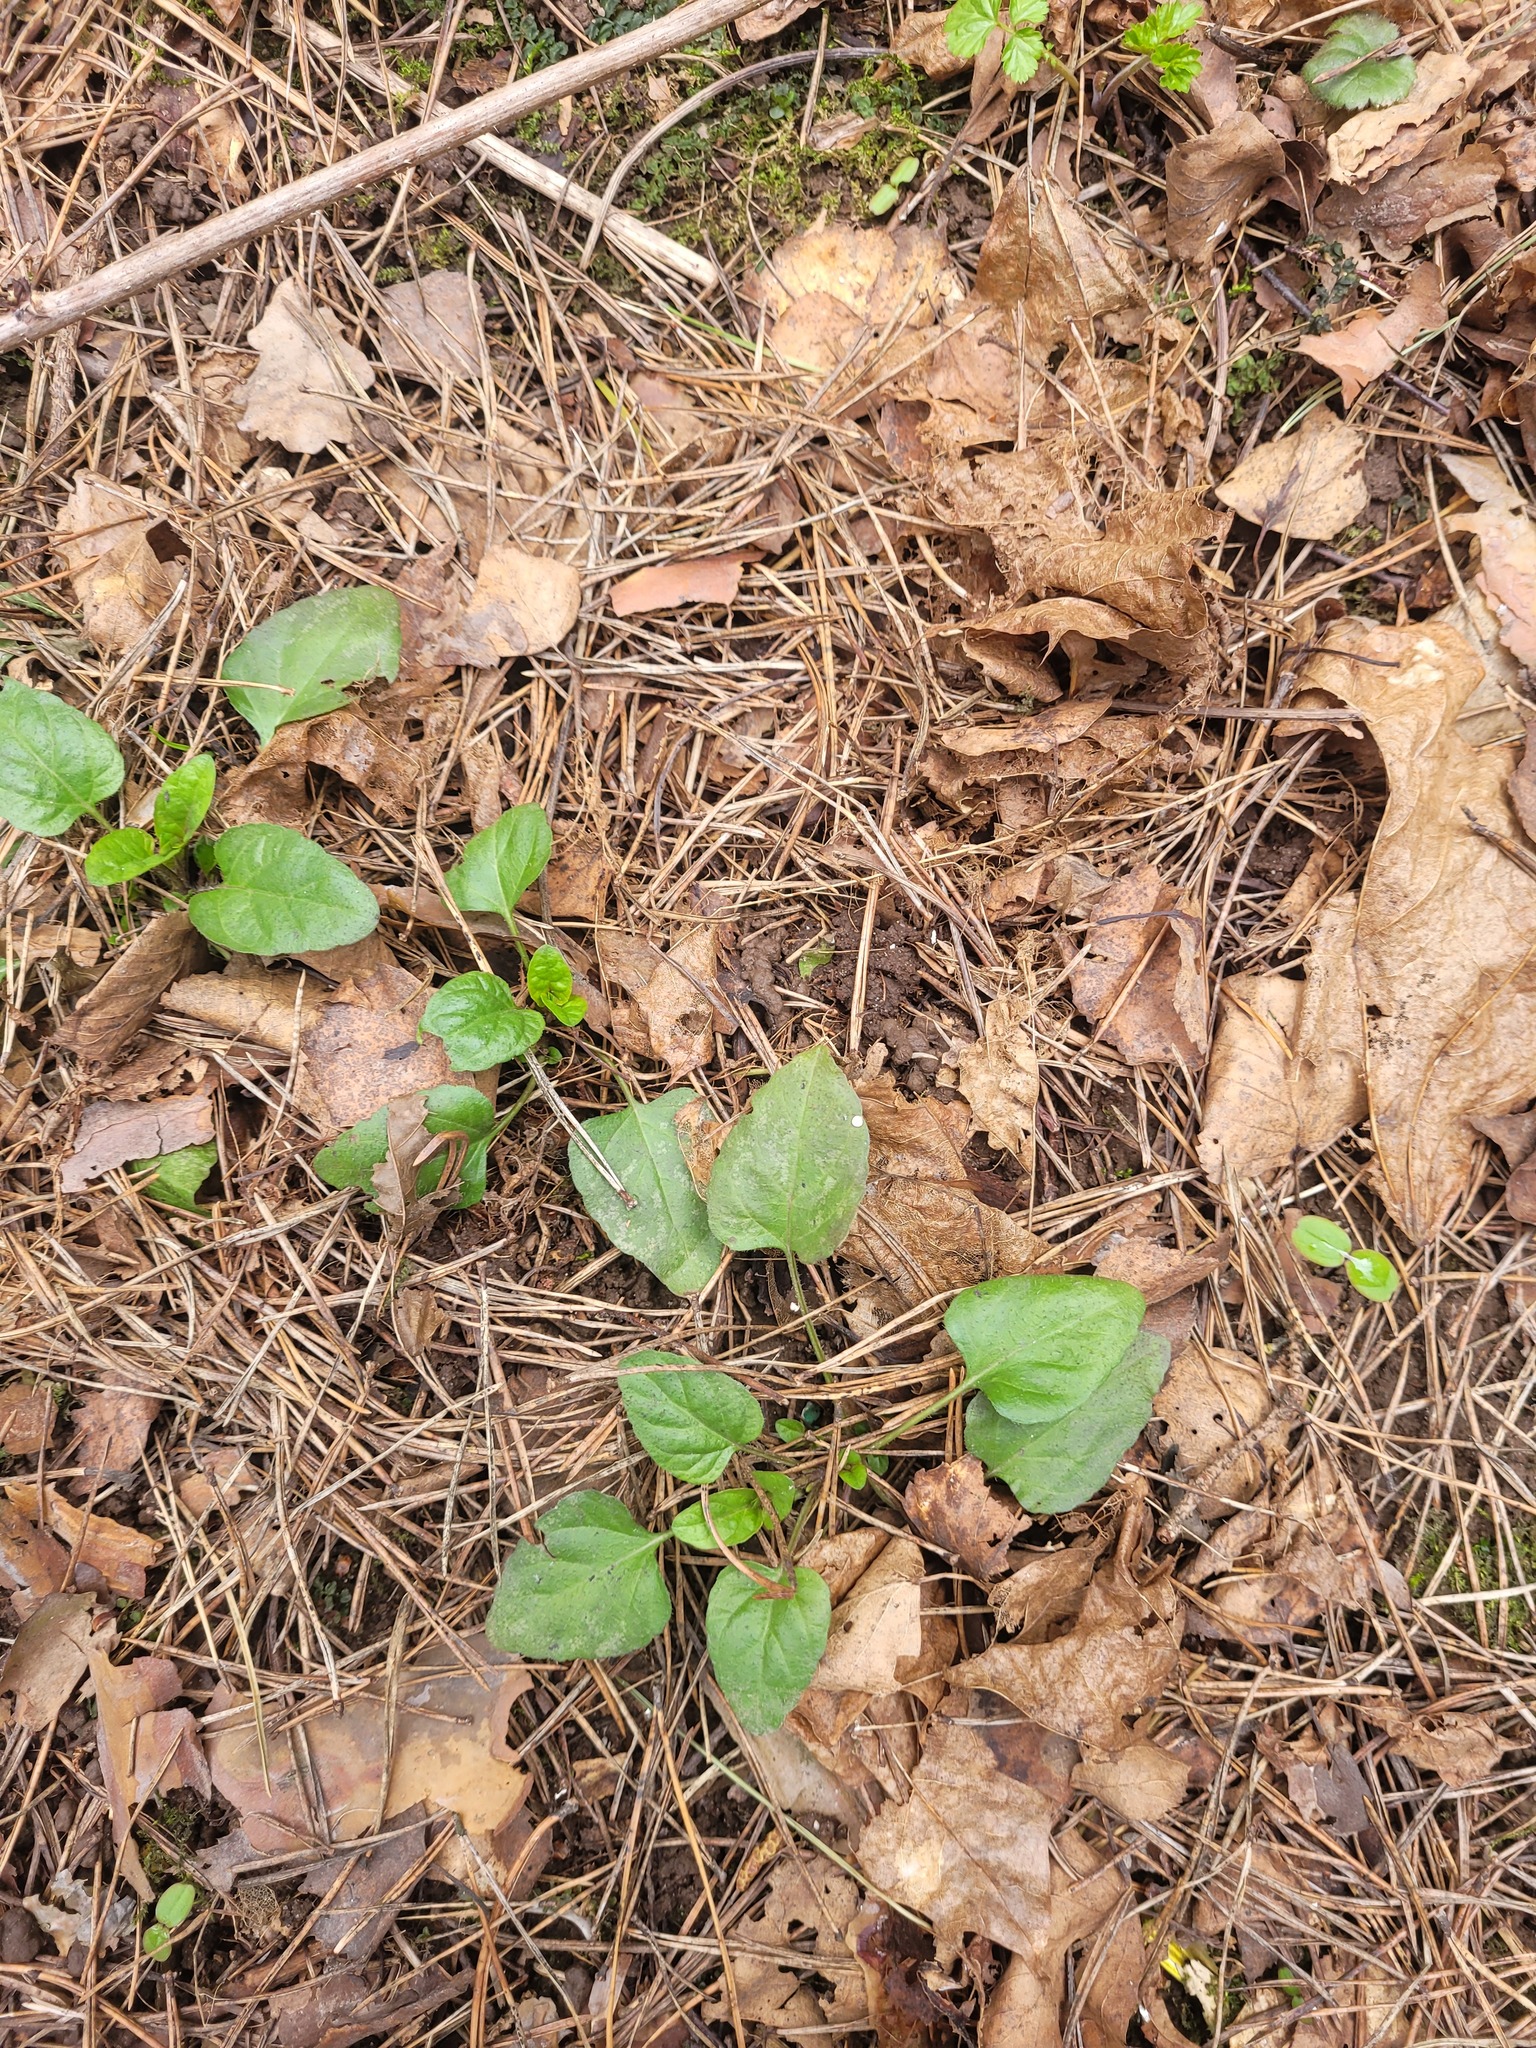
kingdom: Plantae
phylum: Tracheophyta
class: Magnoliopsida
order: Lamiales
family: Lamiaceae
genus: Prunella
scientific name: Prunella vulgaris
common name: Heal-all
